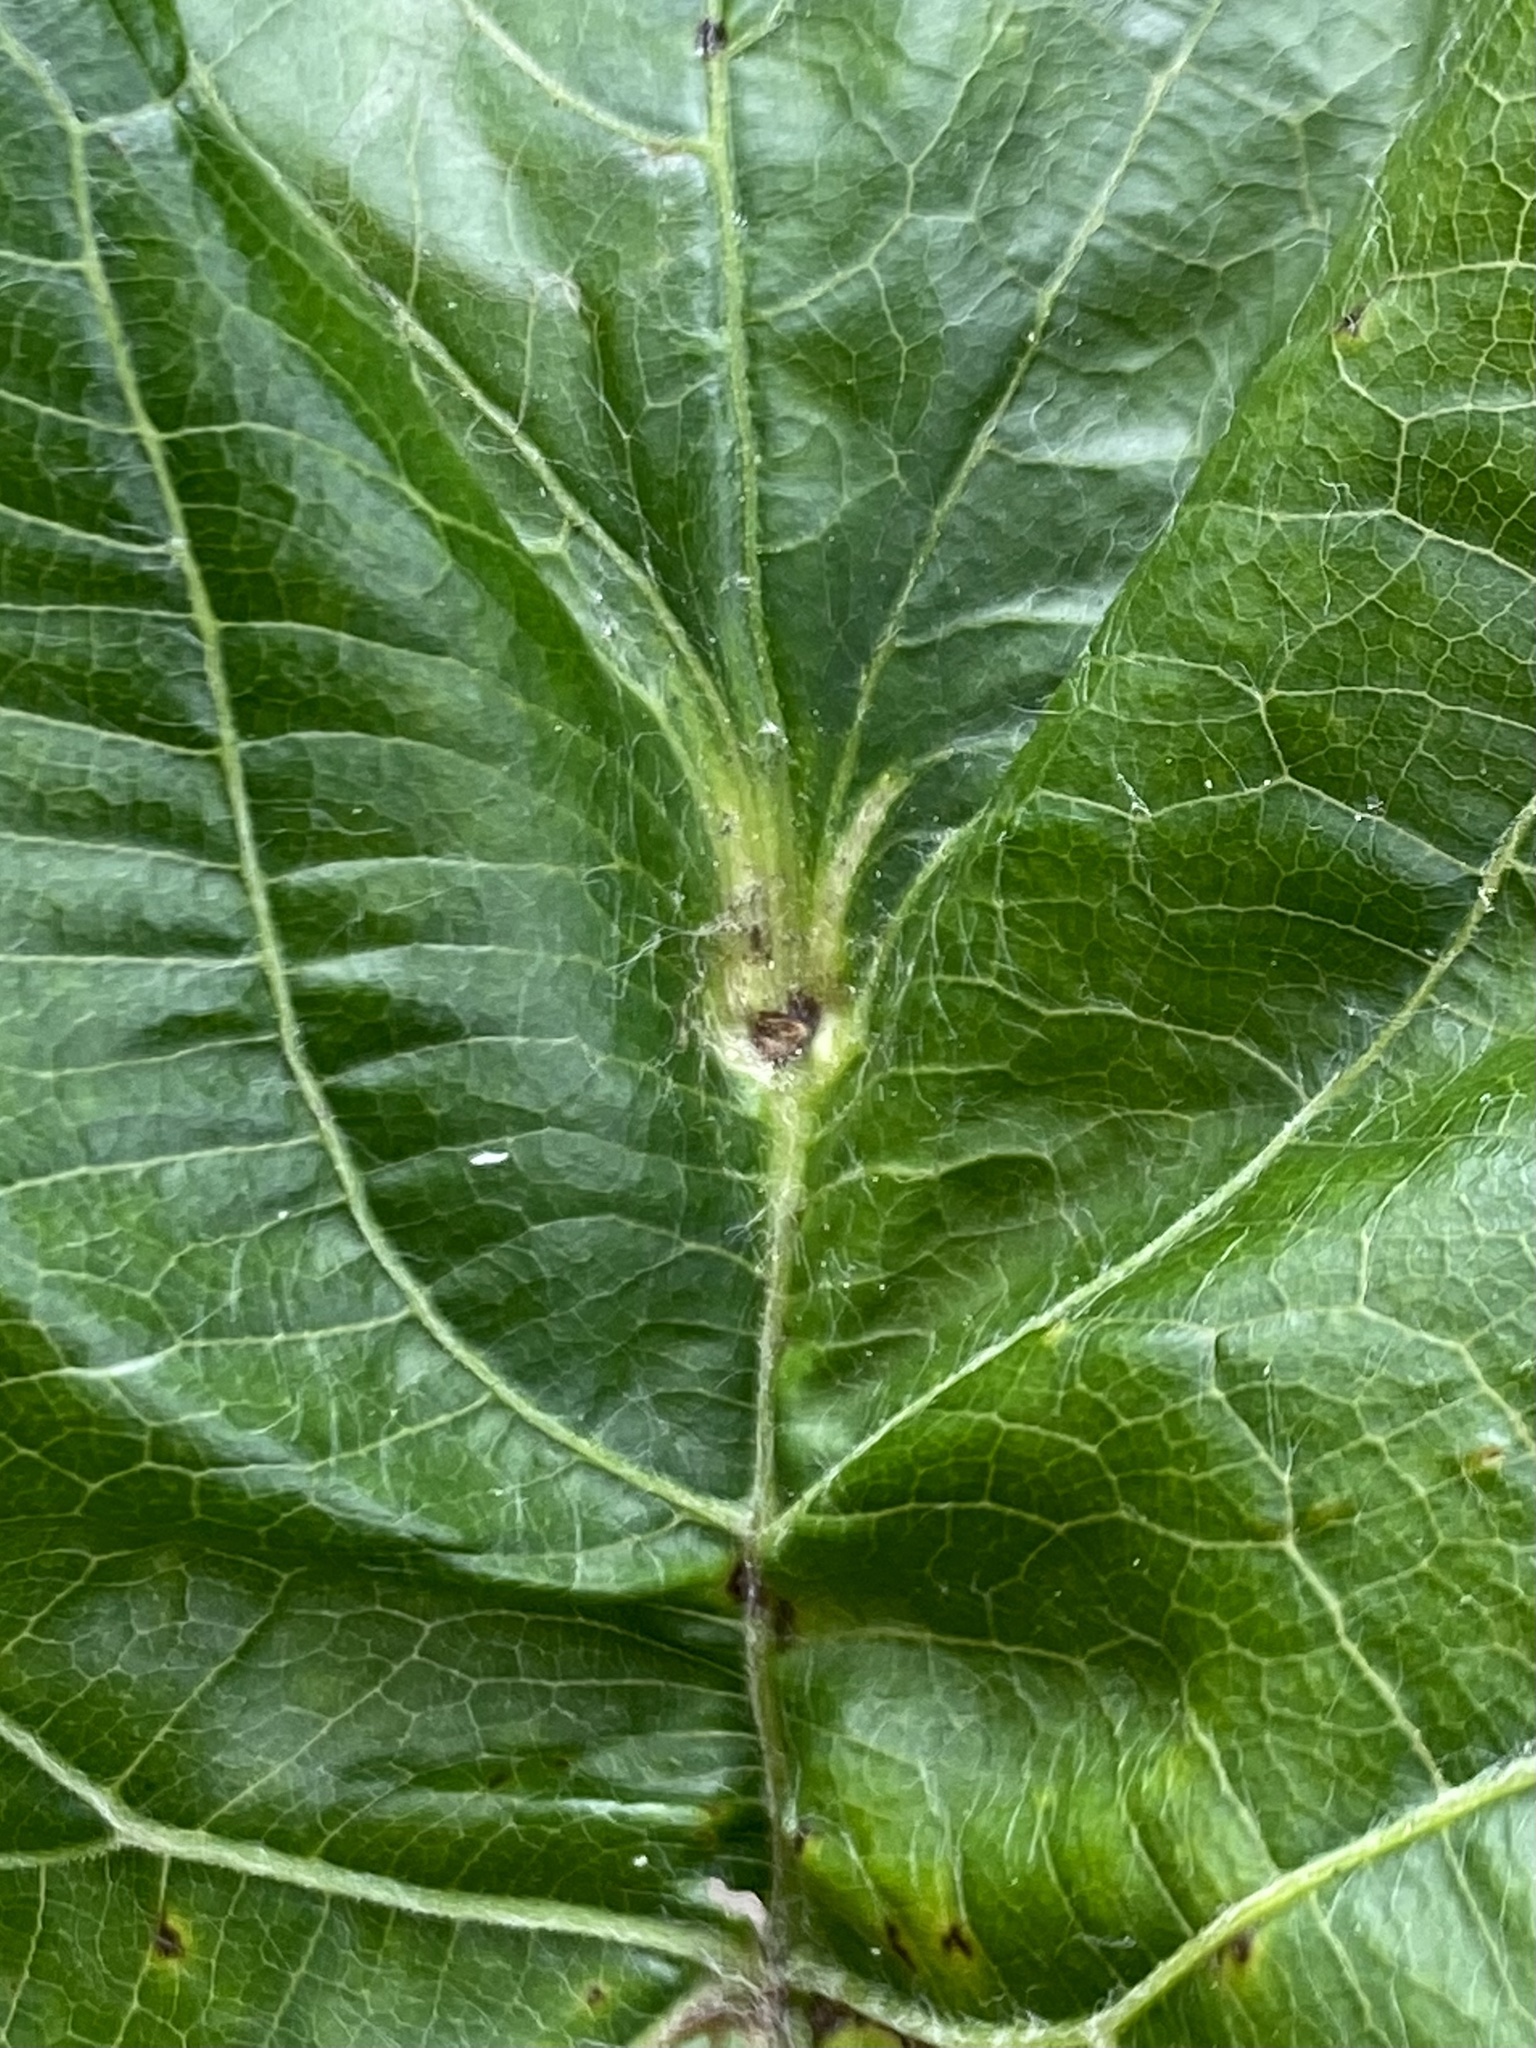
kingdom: Animalia
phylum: Arthropoda
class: Insecta
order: Diptera
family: Cecidomyiidae
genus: Ampelomyia
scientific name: Ampelomyia viticola
